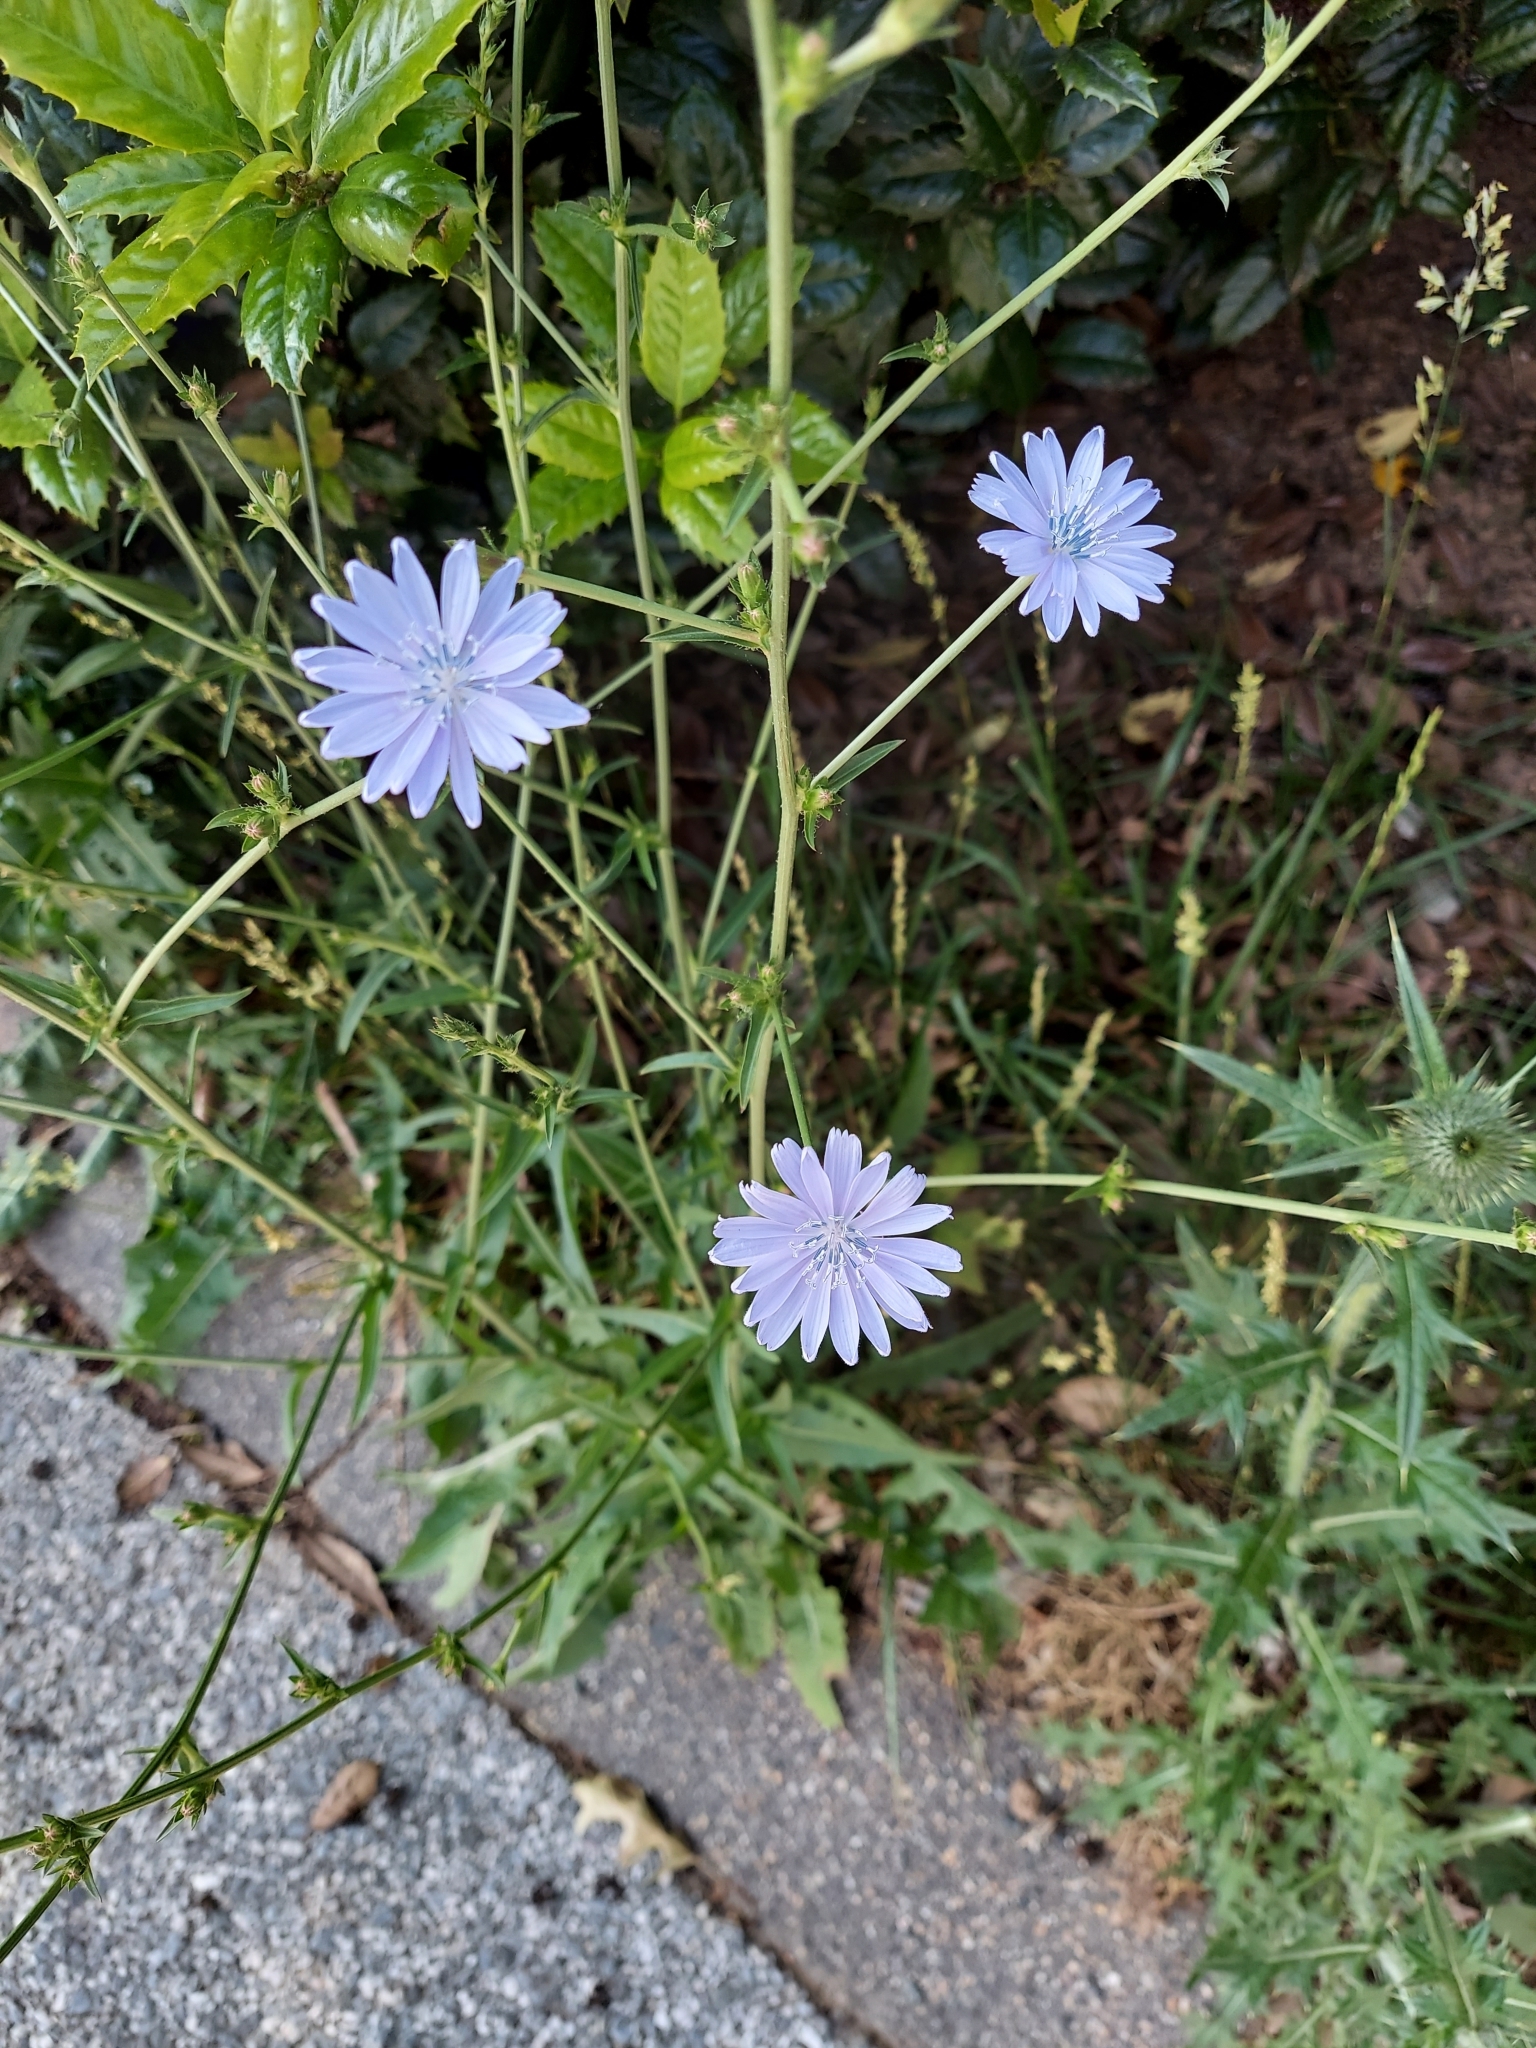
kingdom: Plantae
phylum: Tracheophyta
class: Magnoliopsida
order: Asterales
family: Asteraceae
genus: Cichorium
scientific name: Cichorium intybus
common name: Chicory
